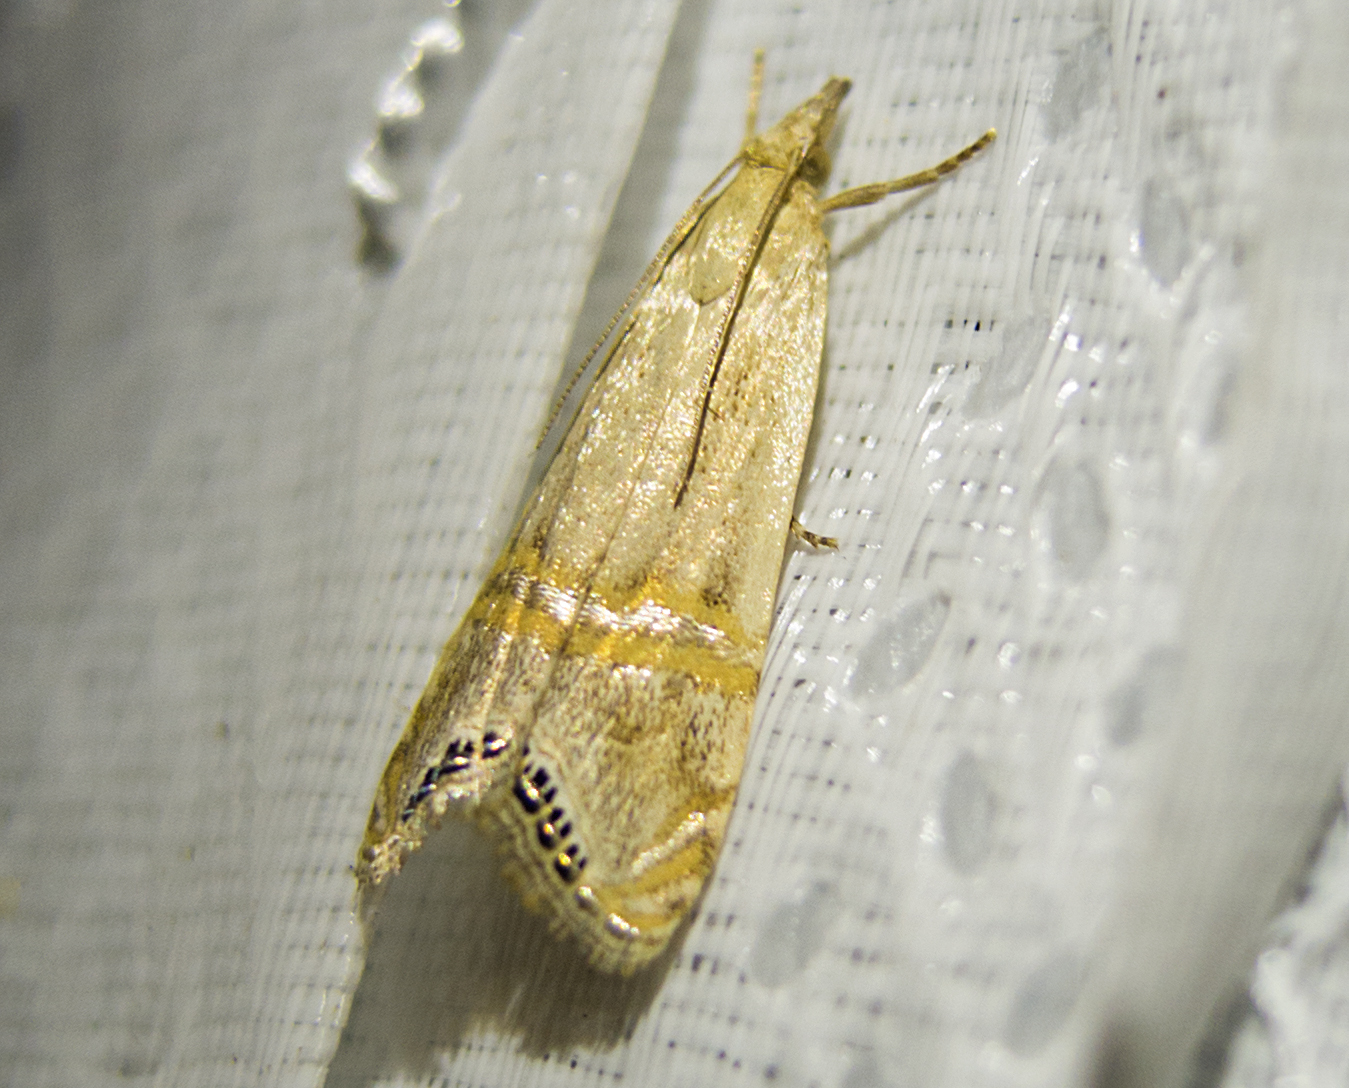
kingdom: Animalia
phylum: Arthropoda
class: Insecta
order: Lepidoptera
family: Crambidae
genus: Euchromius
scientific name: Euchromius ocellea
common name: Necklace veneer moth
